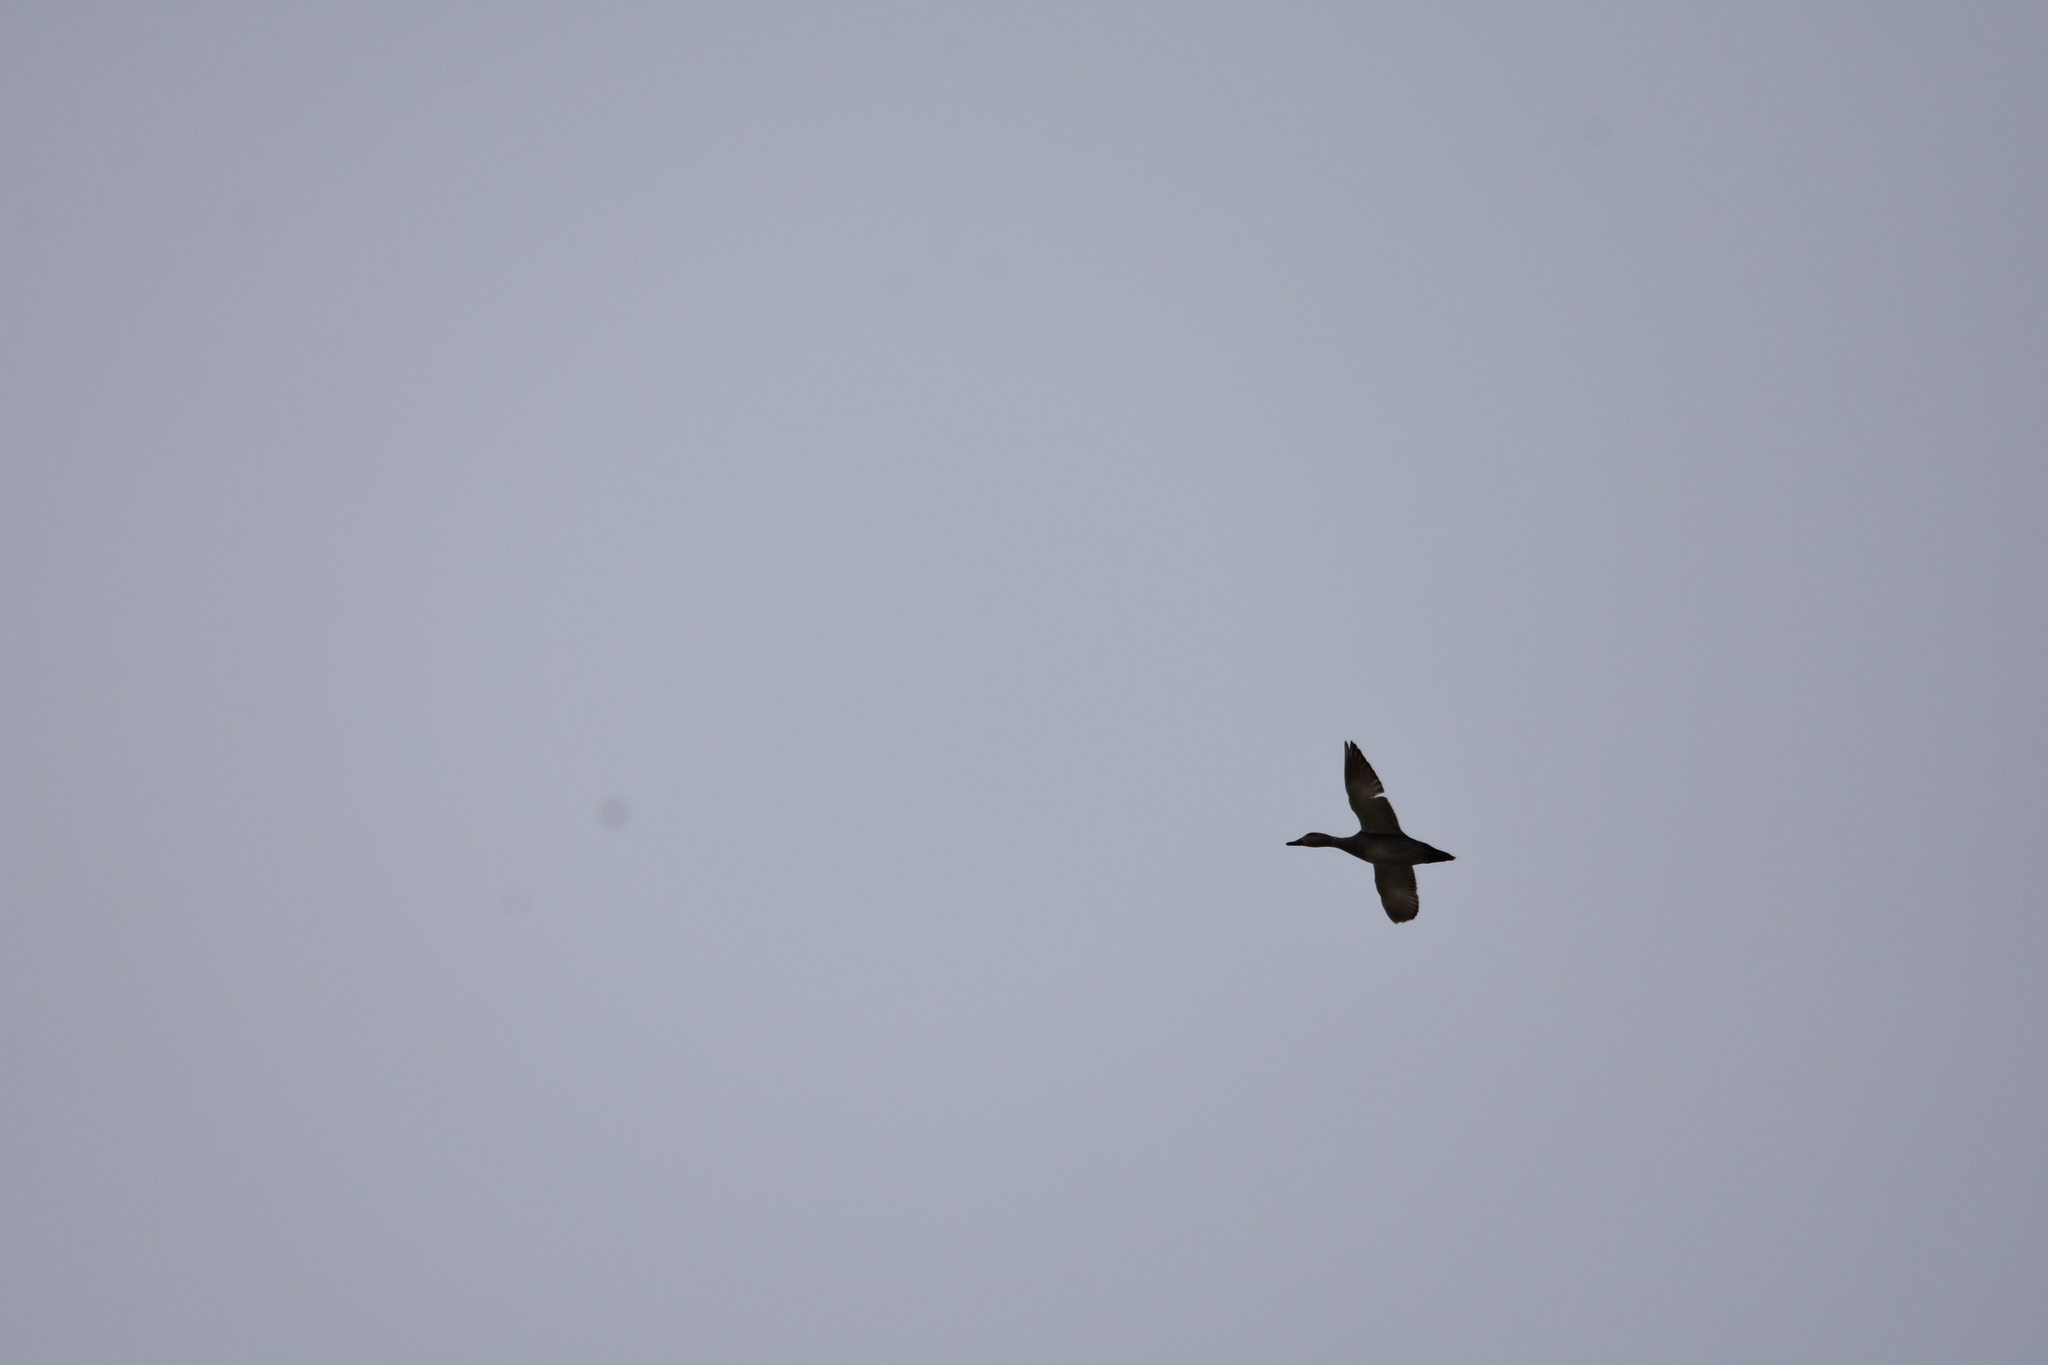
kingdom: Animalia
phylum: Chordata
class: Aves
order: Anseriformes
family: Anatidae
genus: Mareca
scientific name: Mareca strepera
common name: Gadwall
